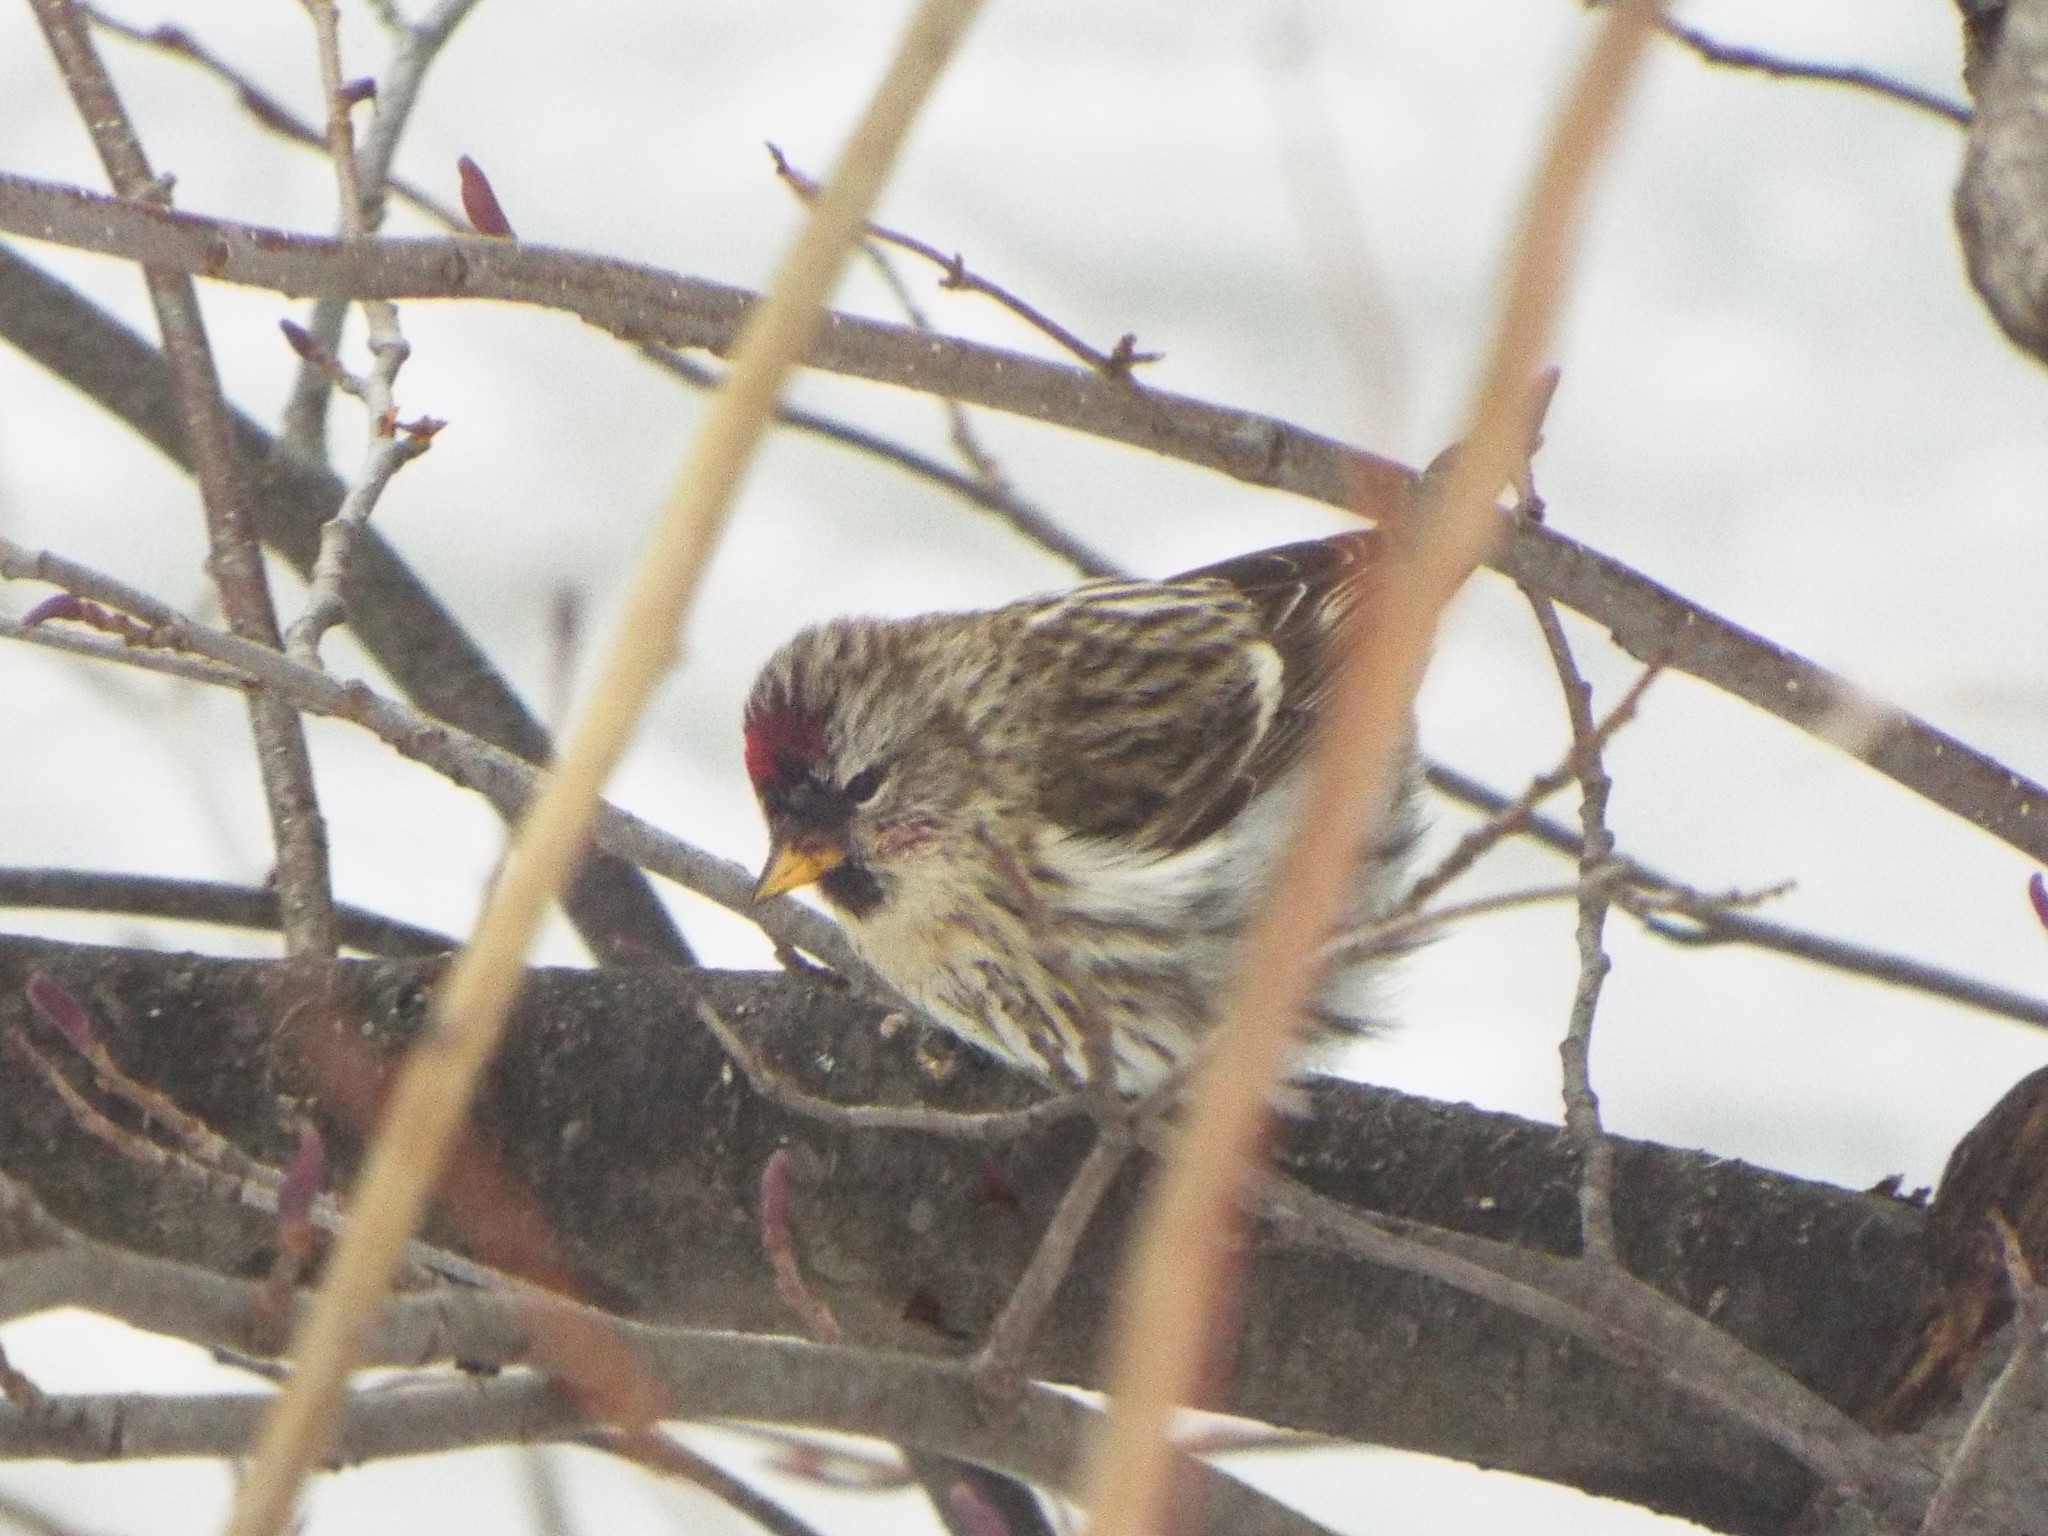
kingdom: Animalia
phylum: Chordata
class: Aves
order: Passeriformes
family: Fringillidae
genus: Acanthis
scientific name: Acanthis flammea
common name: Common redpoll
